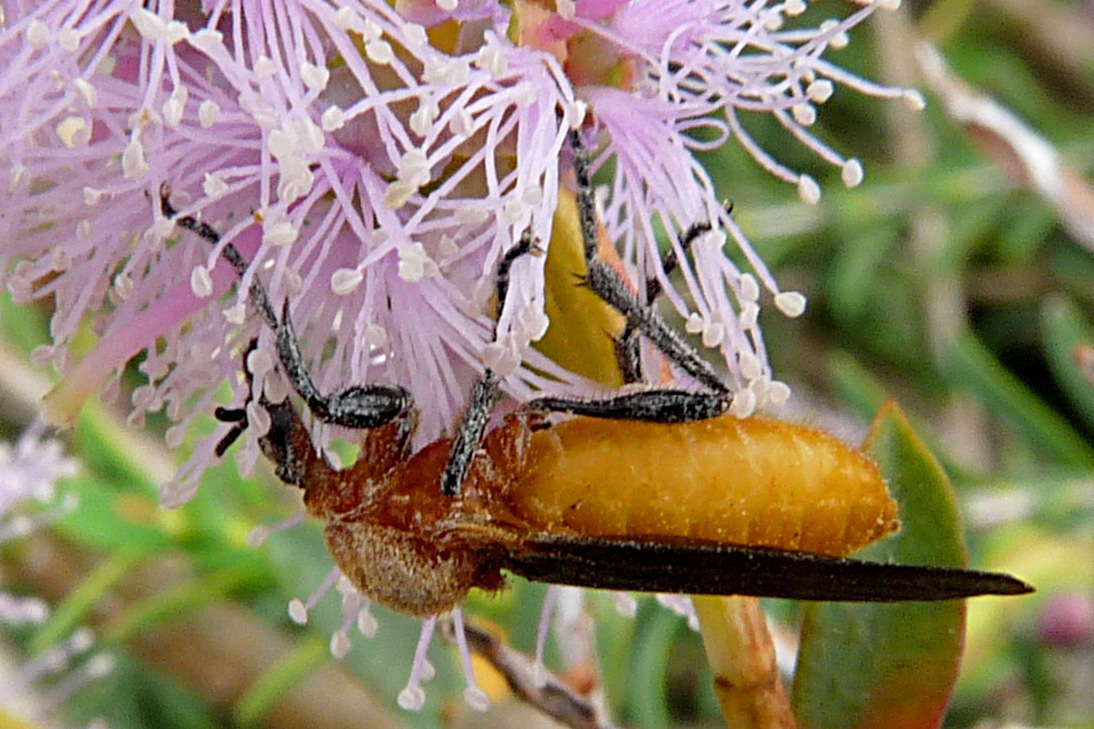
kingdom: Animalia
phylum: Arthropoda
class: Insecta
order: Diptera
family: Bibionidae
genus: Bibio
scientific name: Bibio imitator
